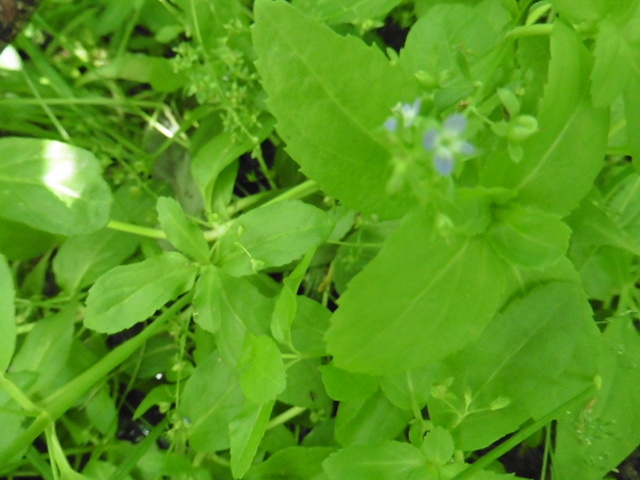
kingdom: Plantae
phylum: Tracheophyta
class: Magnoliopsida
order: Lamiales
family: Plantaginaceae
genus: Veronica
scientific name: Veronica beccabunga
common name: Brooklime
